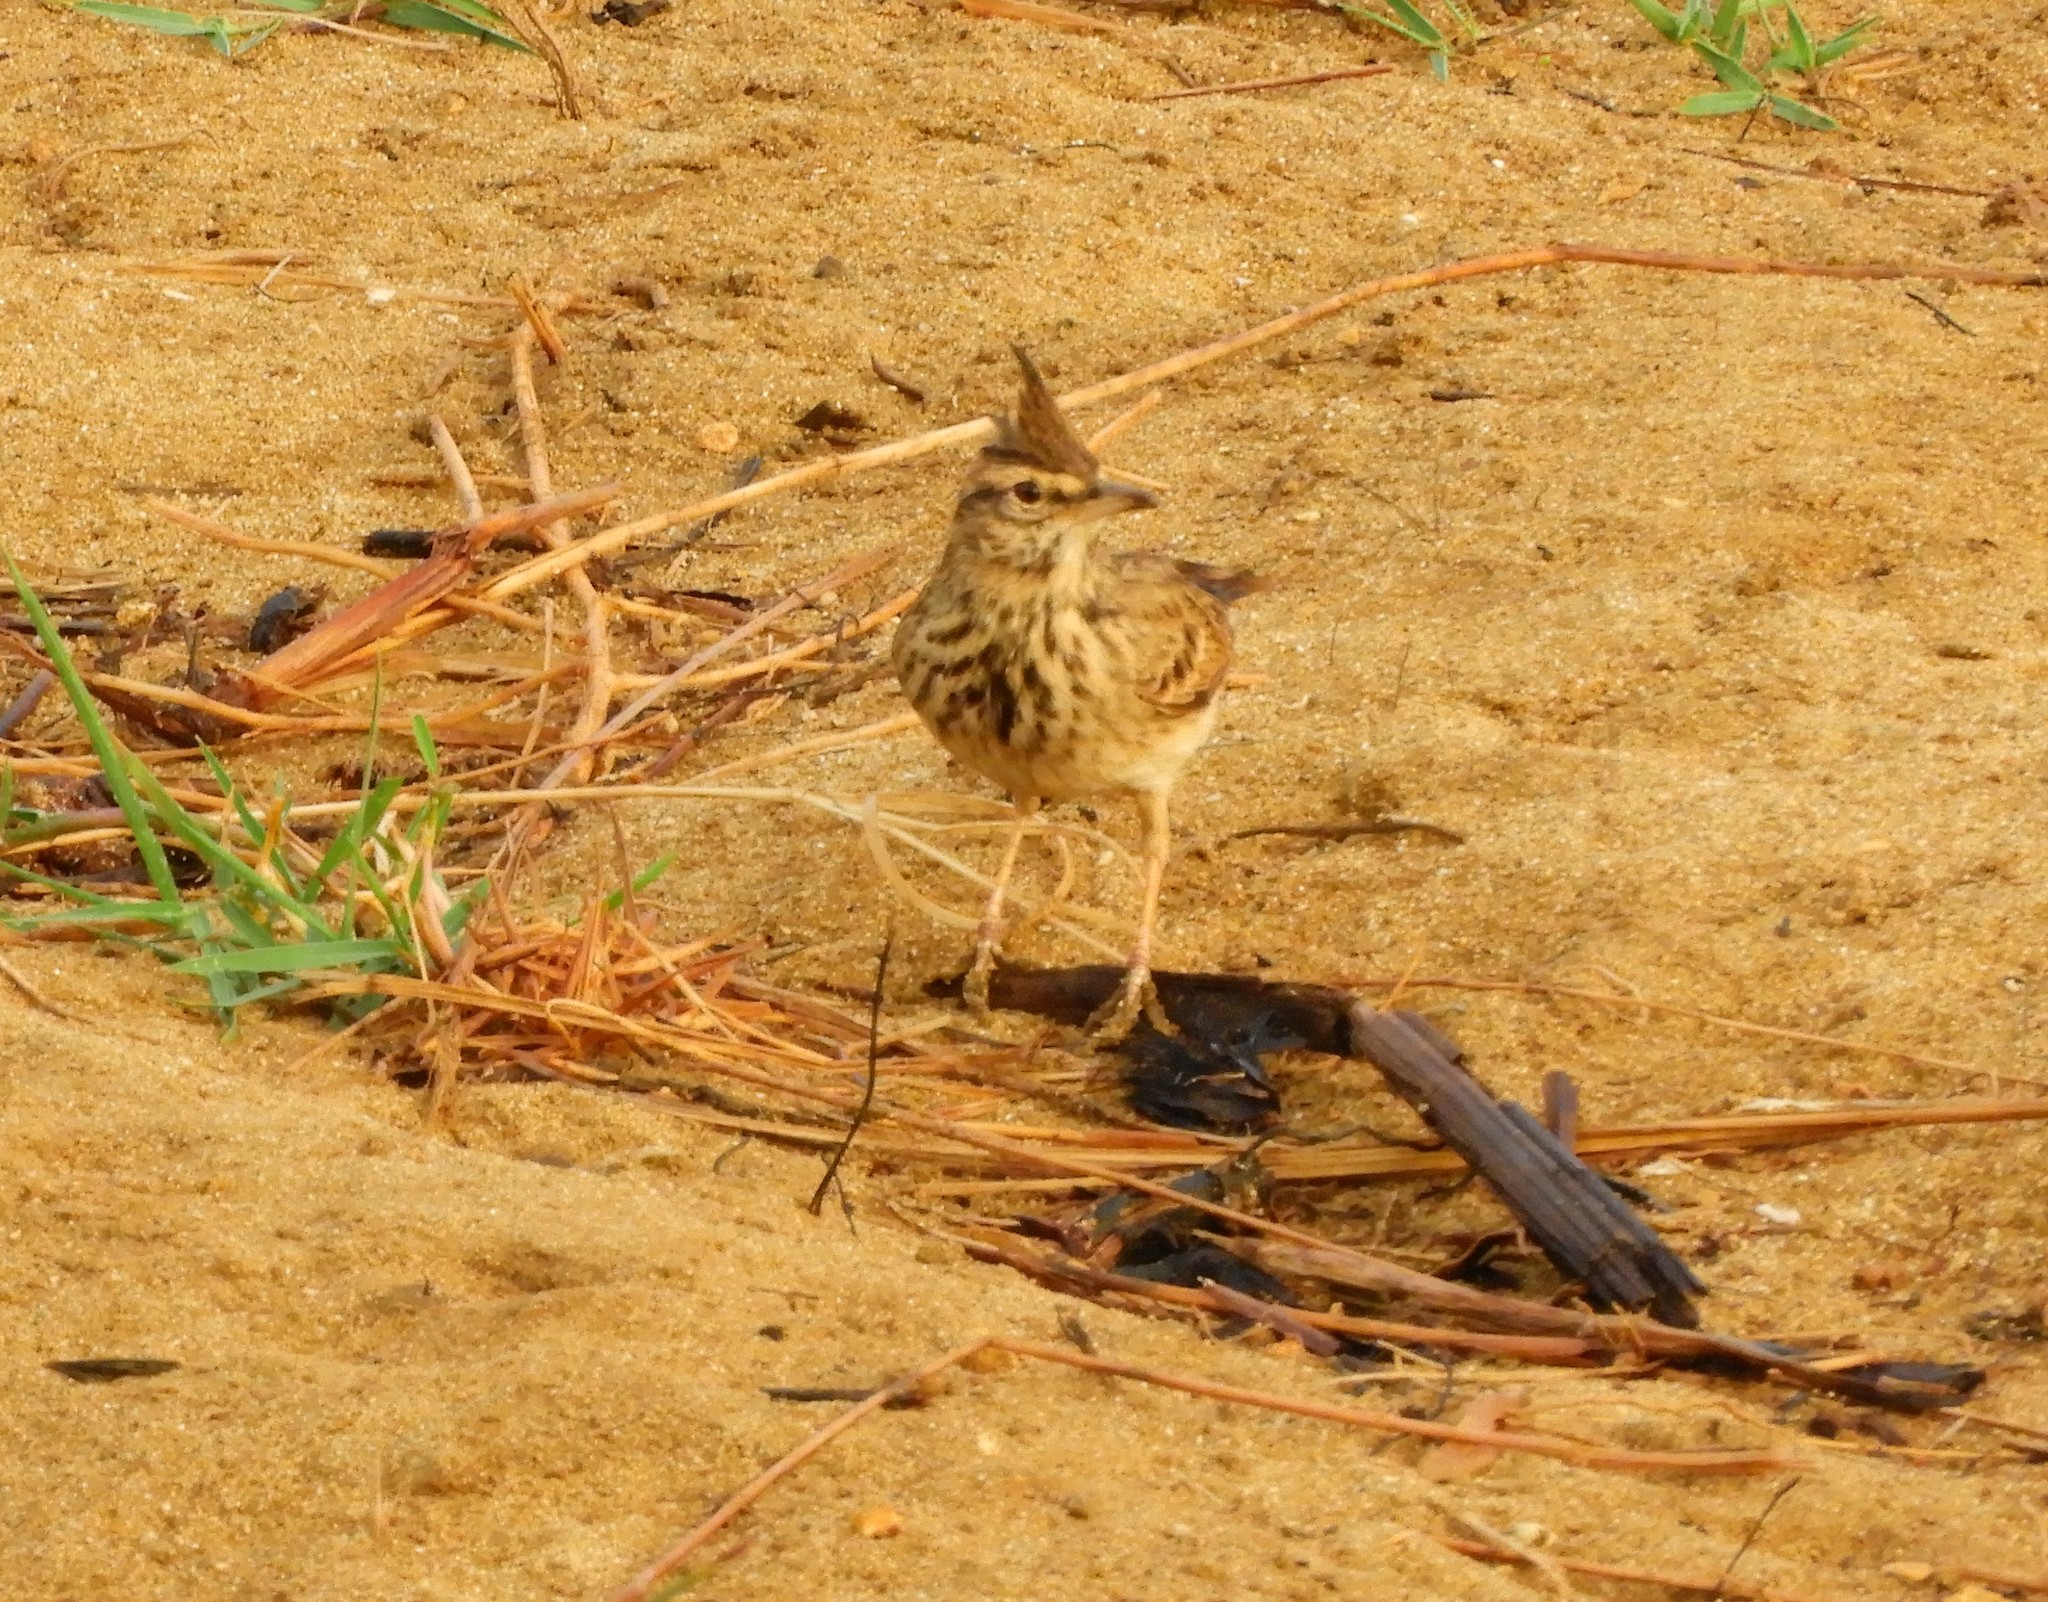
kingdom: Animalia
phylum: Chordata
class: Aves
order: Passeriformes
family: Alaudidae
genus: Galerida
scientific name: Galerida cristata
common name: Crested lark
